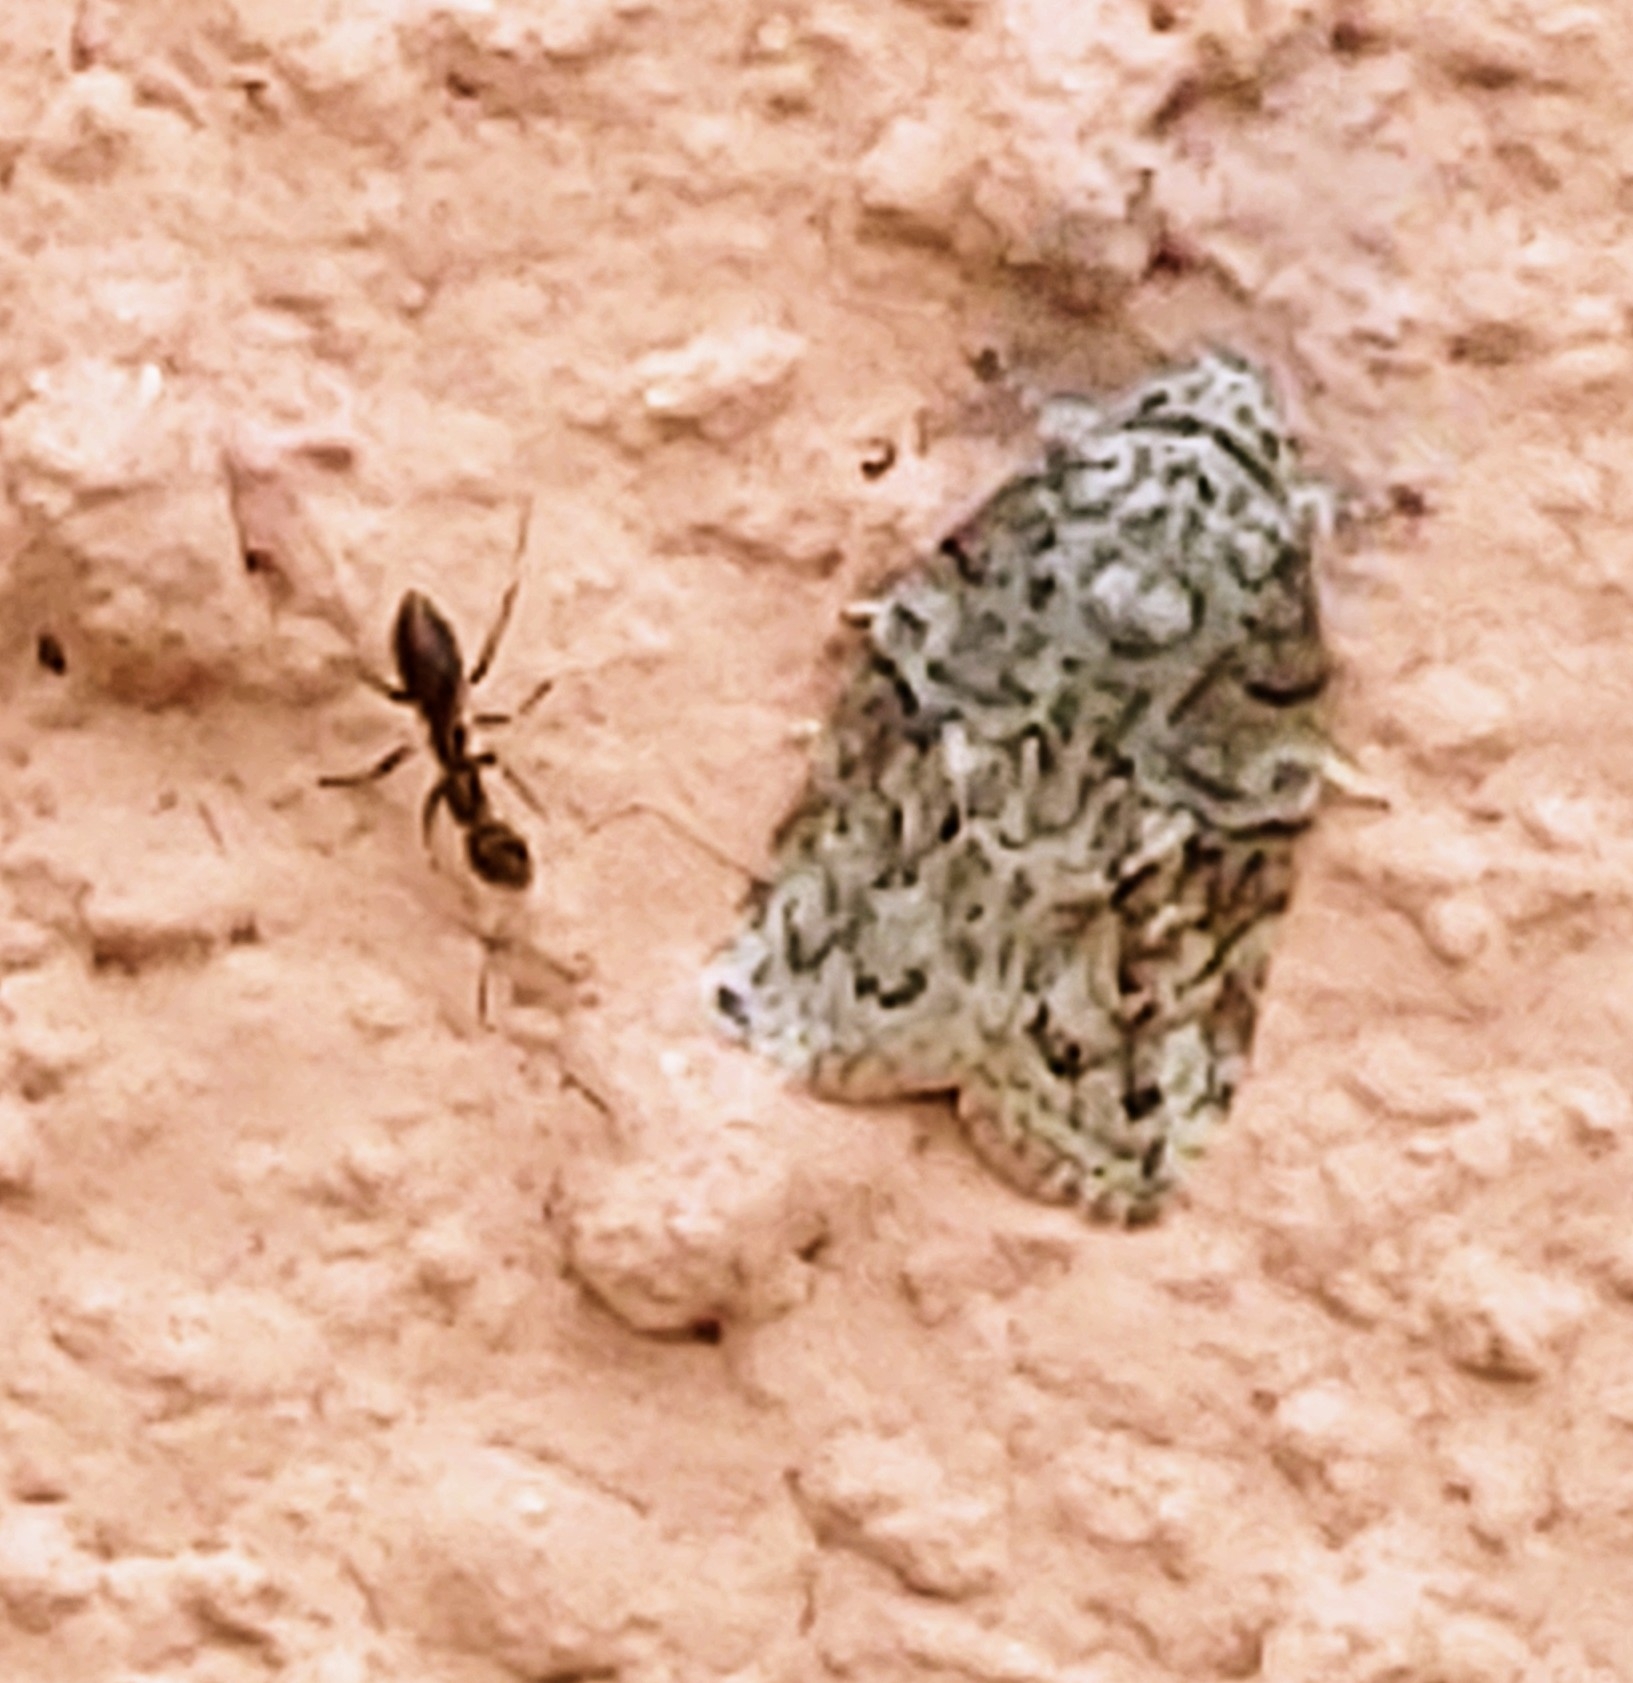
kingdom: Animalia
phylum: Arthropoda
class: Insecta
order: Hymenoptera
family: Formicidae
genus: Paratrechina
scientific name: Paratrechina longicornis
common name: Longhorned crazy ant
